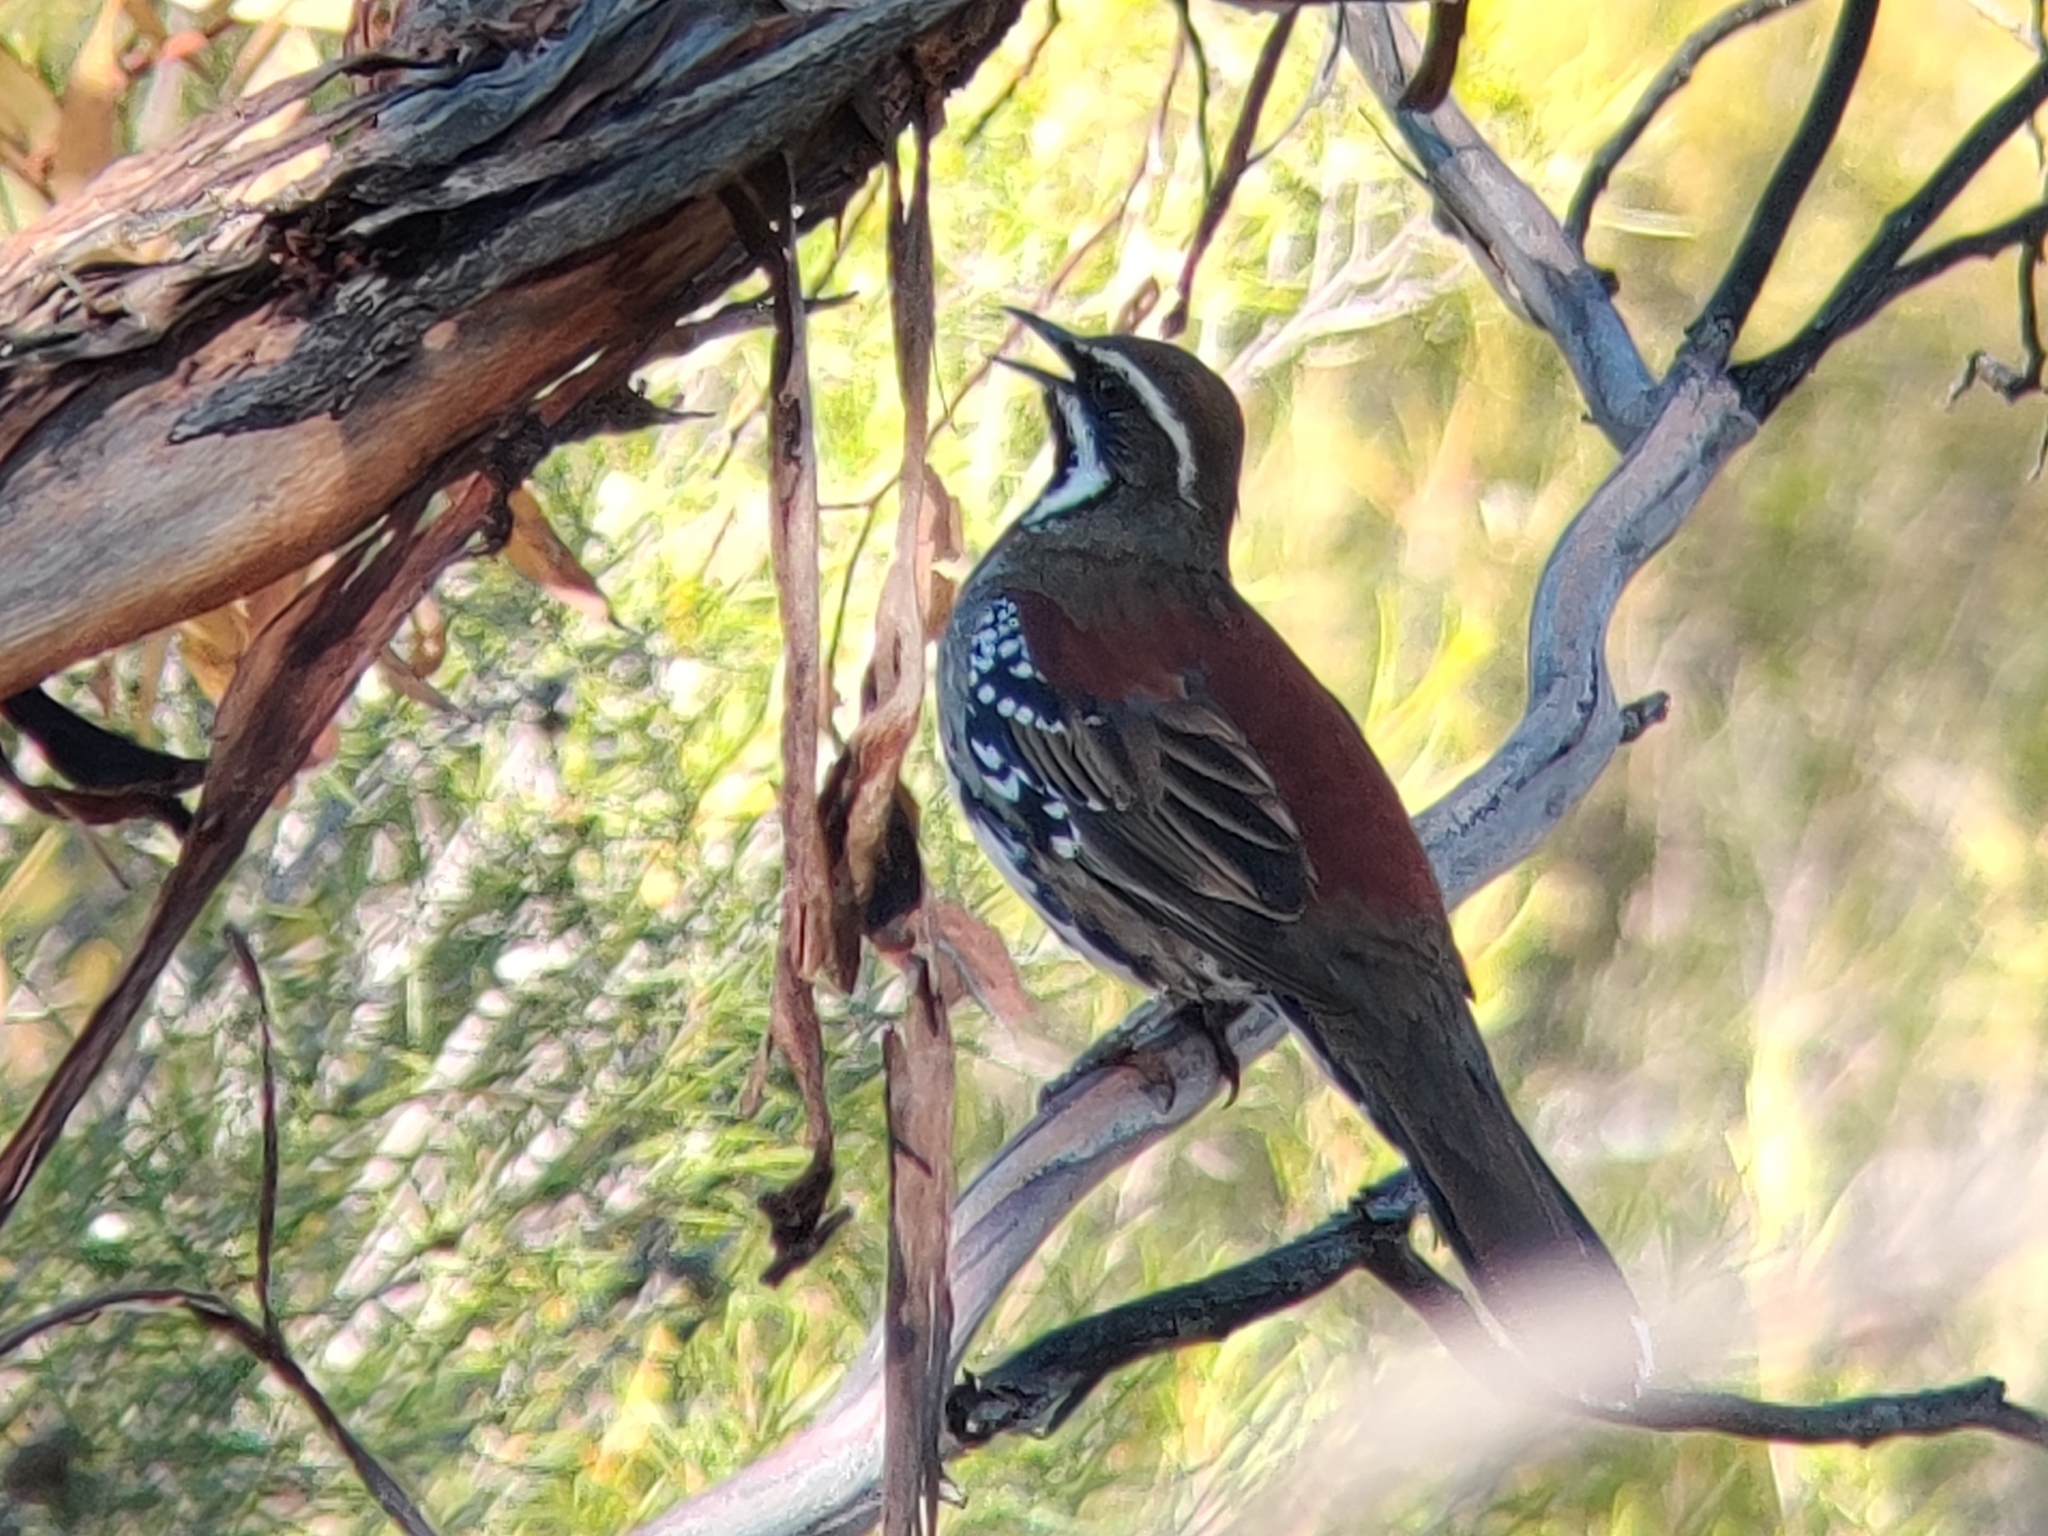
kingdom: Animalia
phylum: Chordata
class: Aves
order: Passeriformes
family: Psophodidae
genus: Cinclosoma
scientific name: Cinclosoma castanotum
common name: Chestnut quail-thrush
